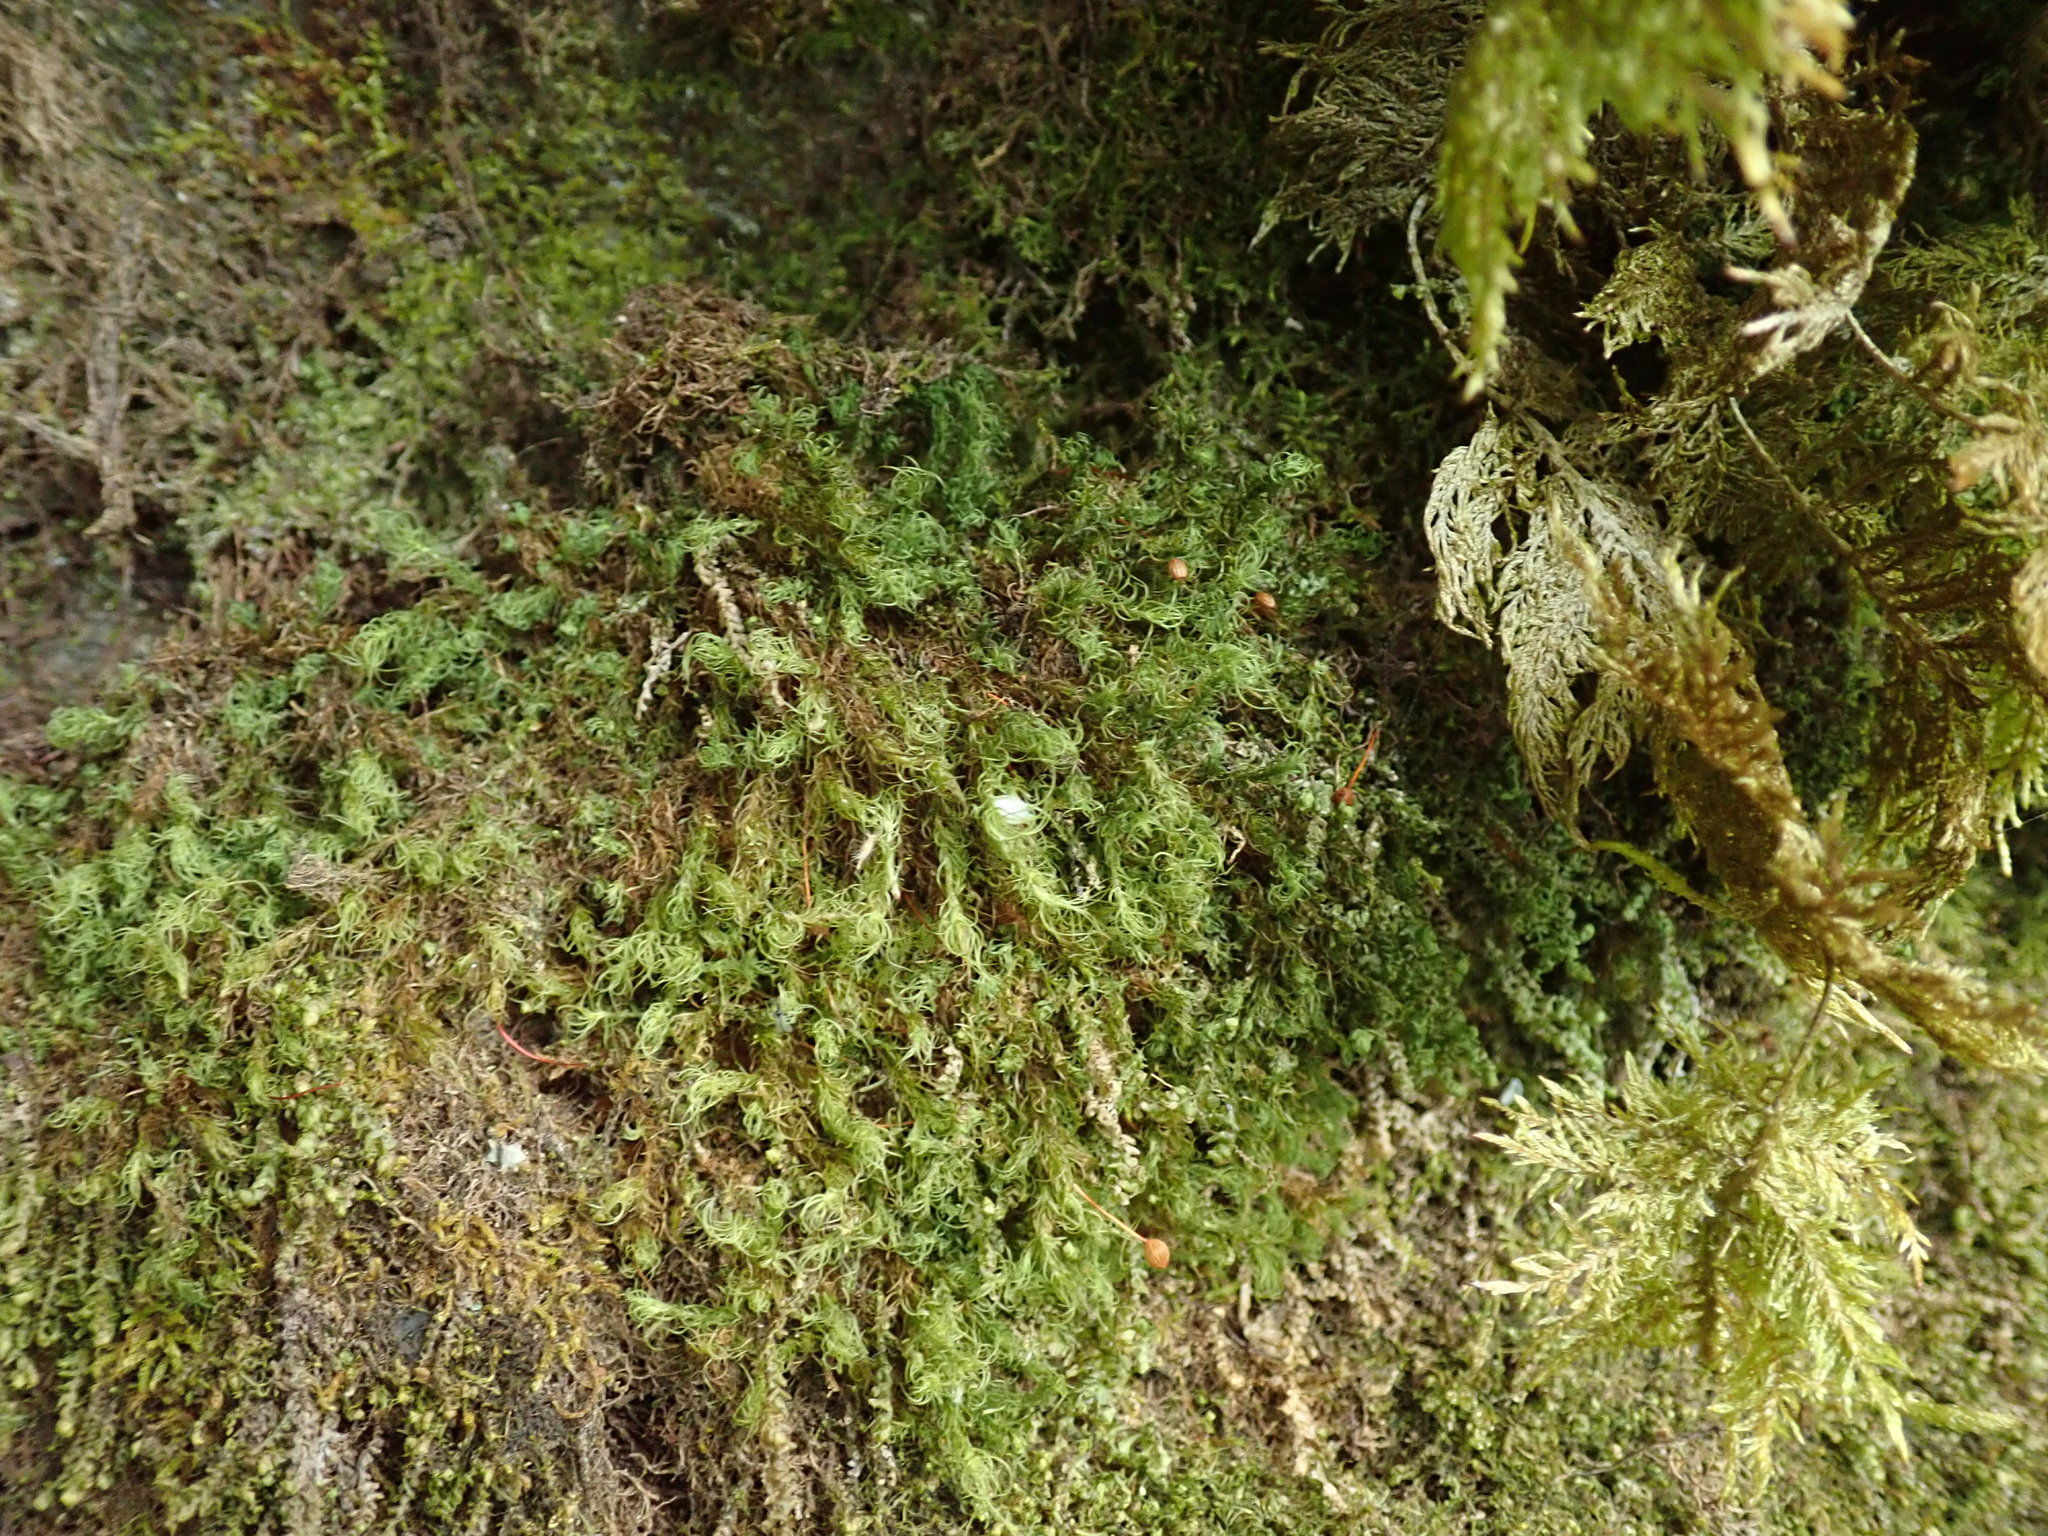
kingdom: Plantae
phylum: Bryophyta
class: Bryopsida
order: Bartramiales
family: Bartramiaceae
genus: Bartramia
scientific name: Bartramia ithyphylla
